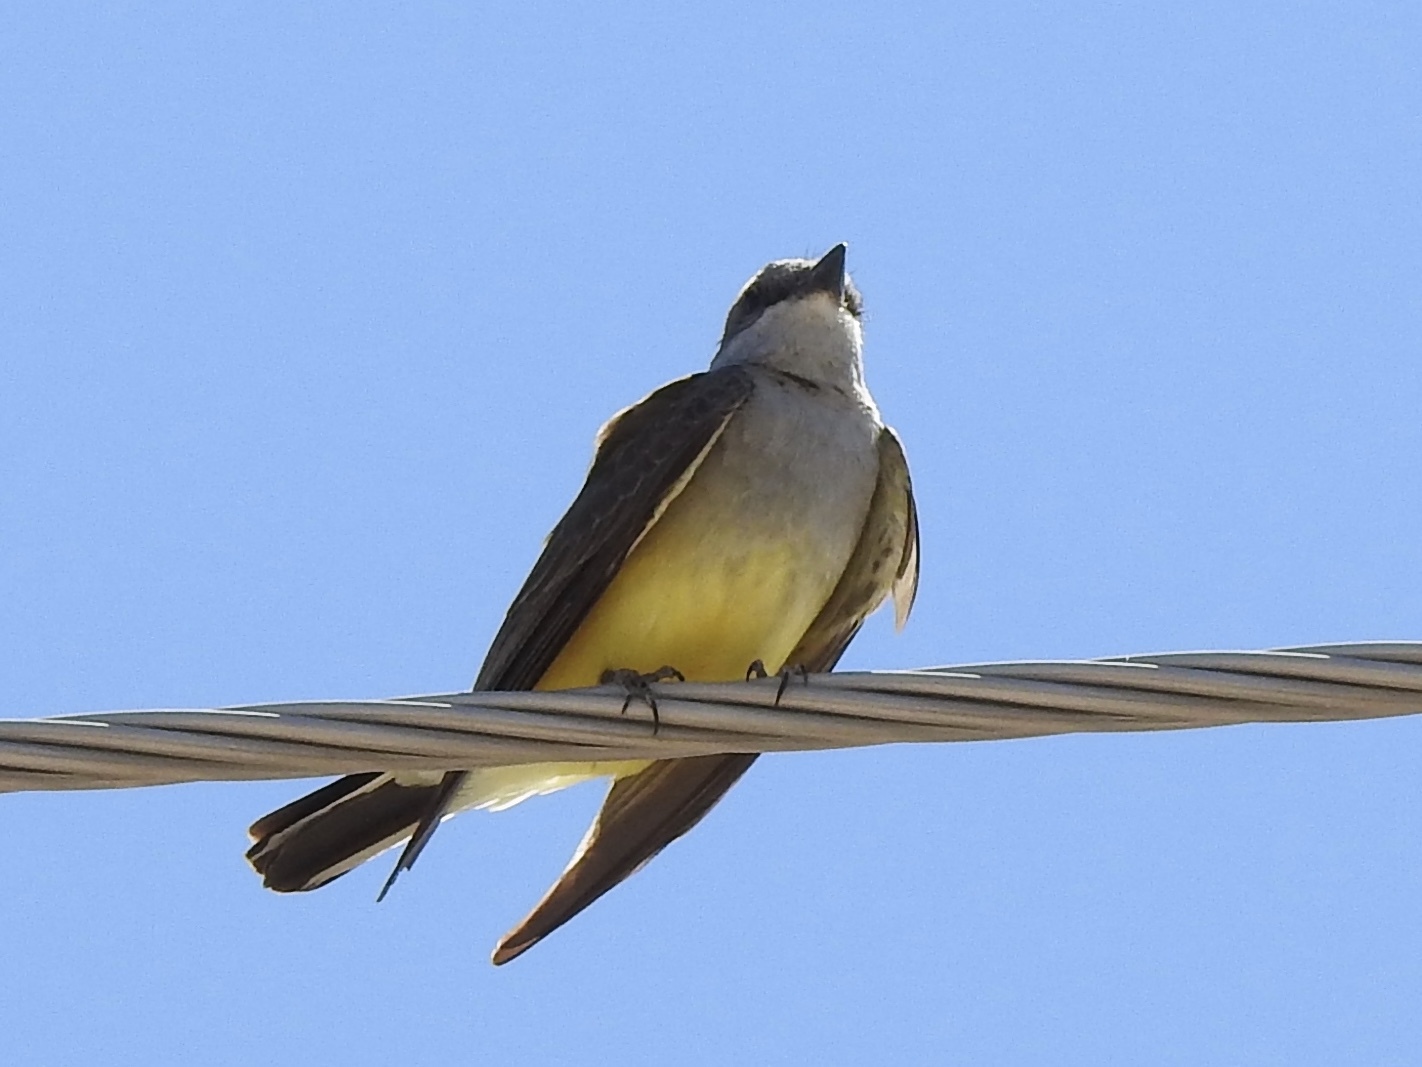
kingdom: Animalia
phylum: Chordata
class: Aves
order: Passeriformes
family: Tyrannidae
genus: Tyrannus
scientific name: Tyrannus verticalis
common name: Western kingbird
